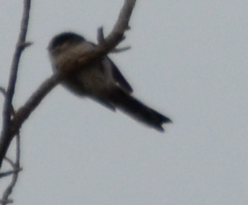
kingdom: Animalia
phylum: Chordata
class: Aves
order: Passeriformes
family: Aegithalidae
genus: Aegithalos
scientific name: Aegithalos caudatus
